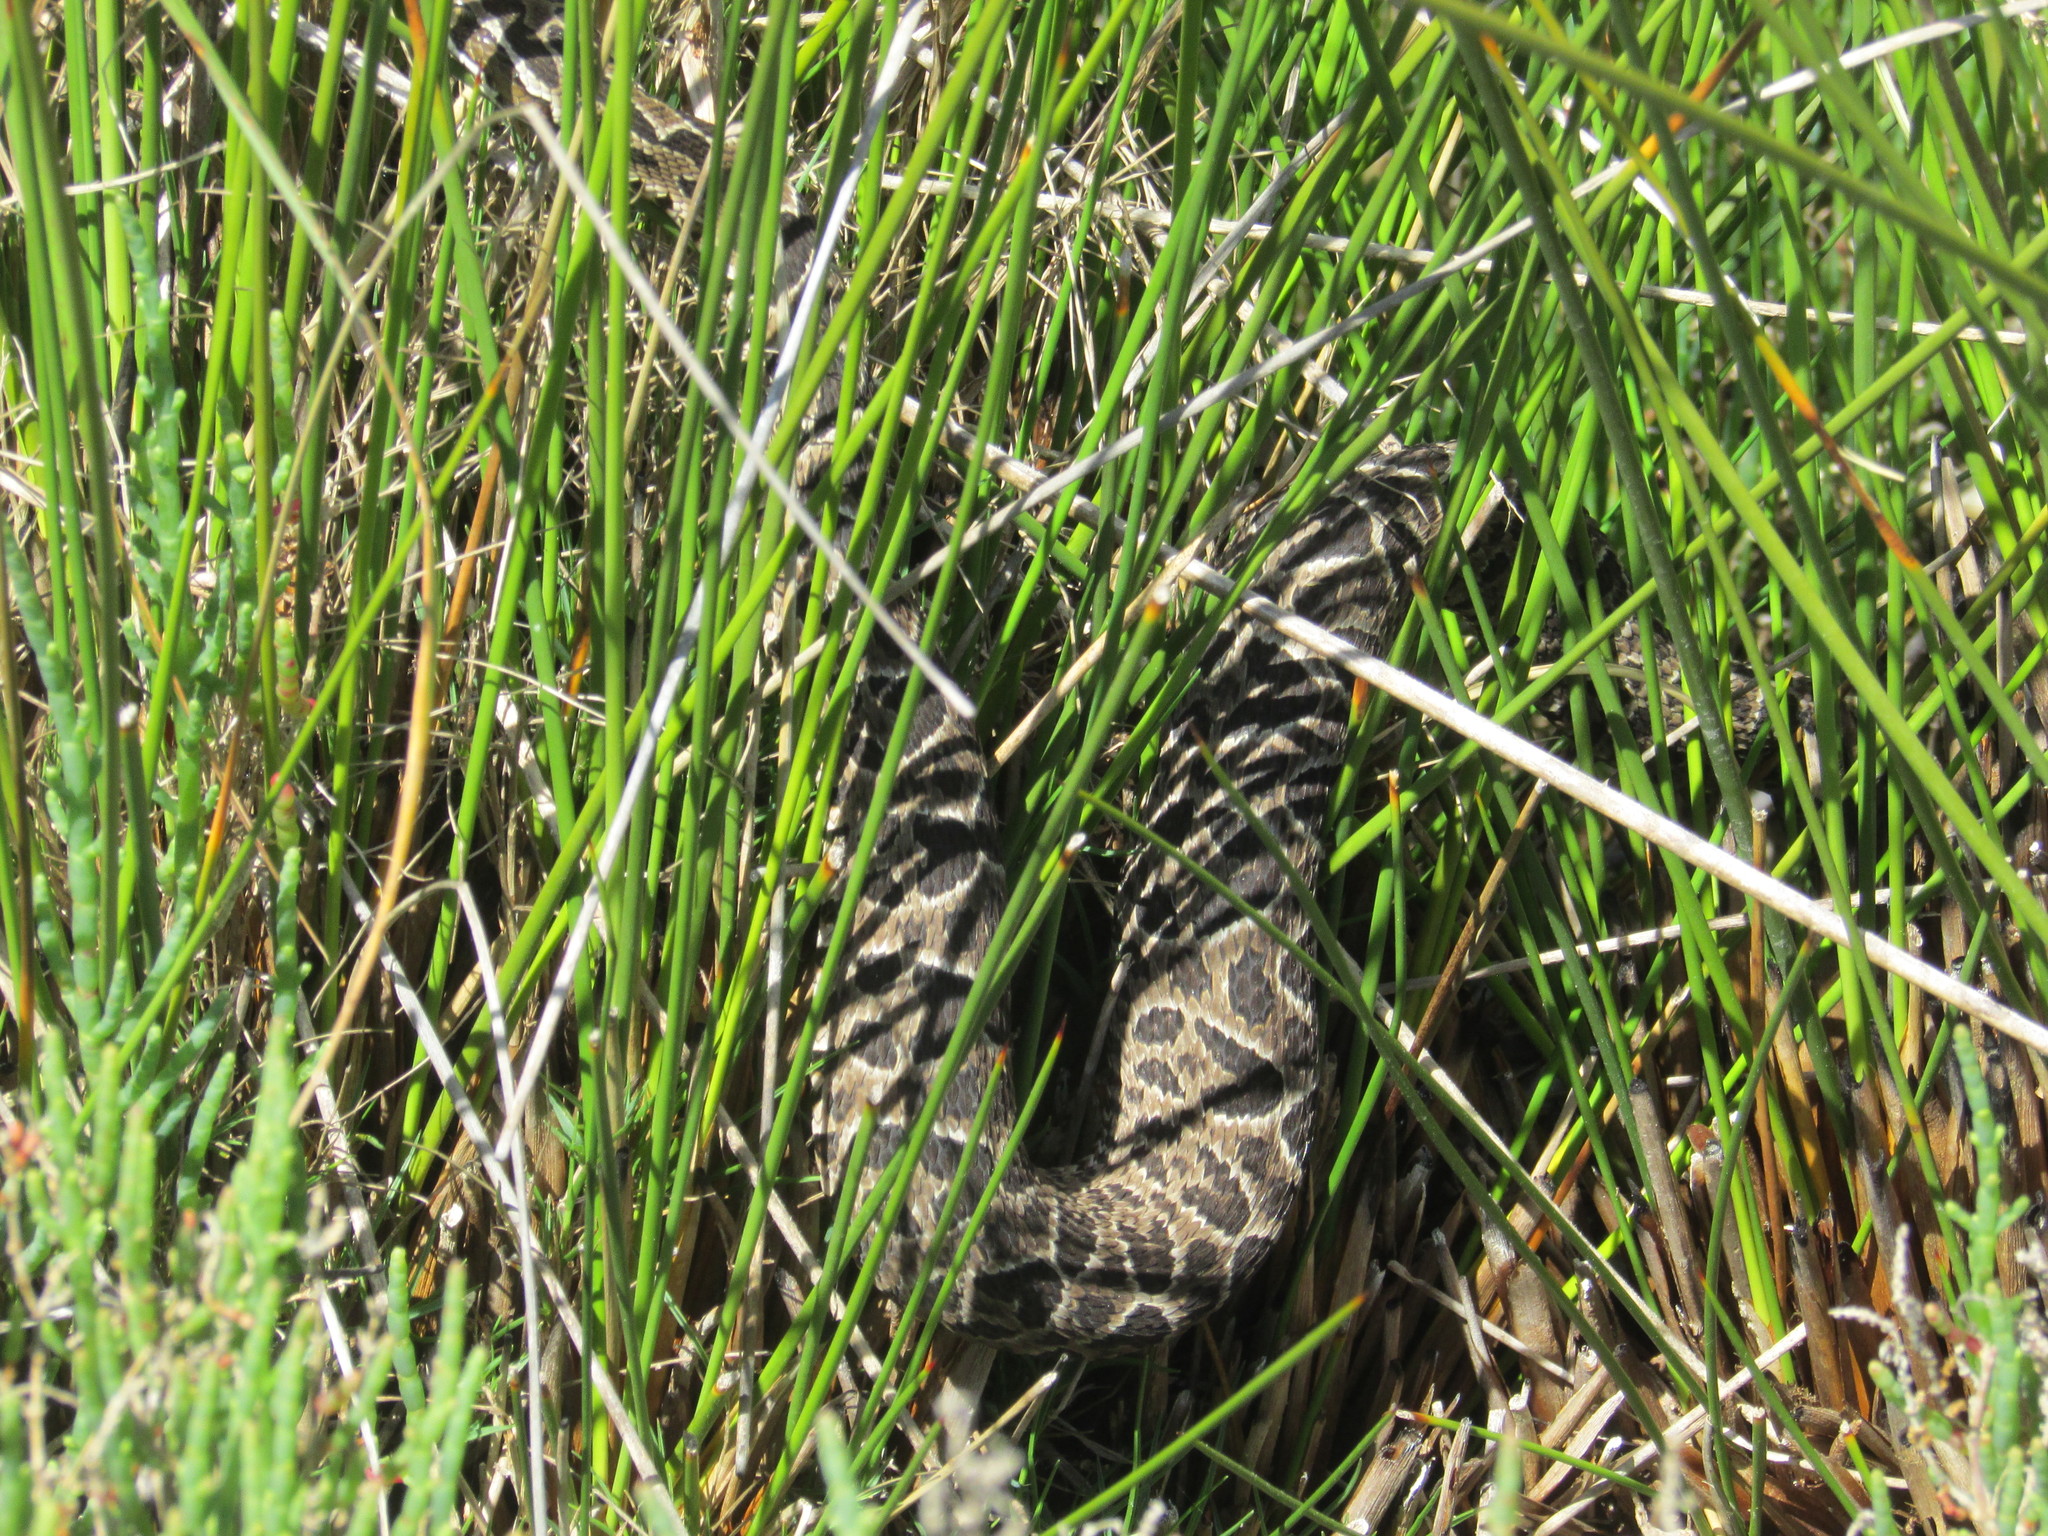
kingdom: Animalia
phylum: Chordata
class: Squamata
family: Viperidae
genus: Bothrops
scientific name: Bothrops alternatus
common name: Urutu
